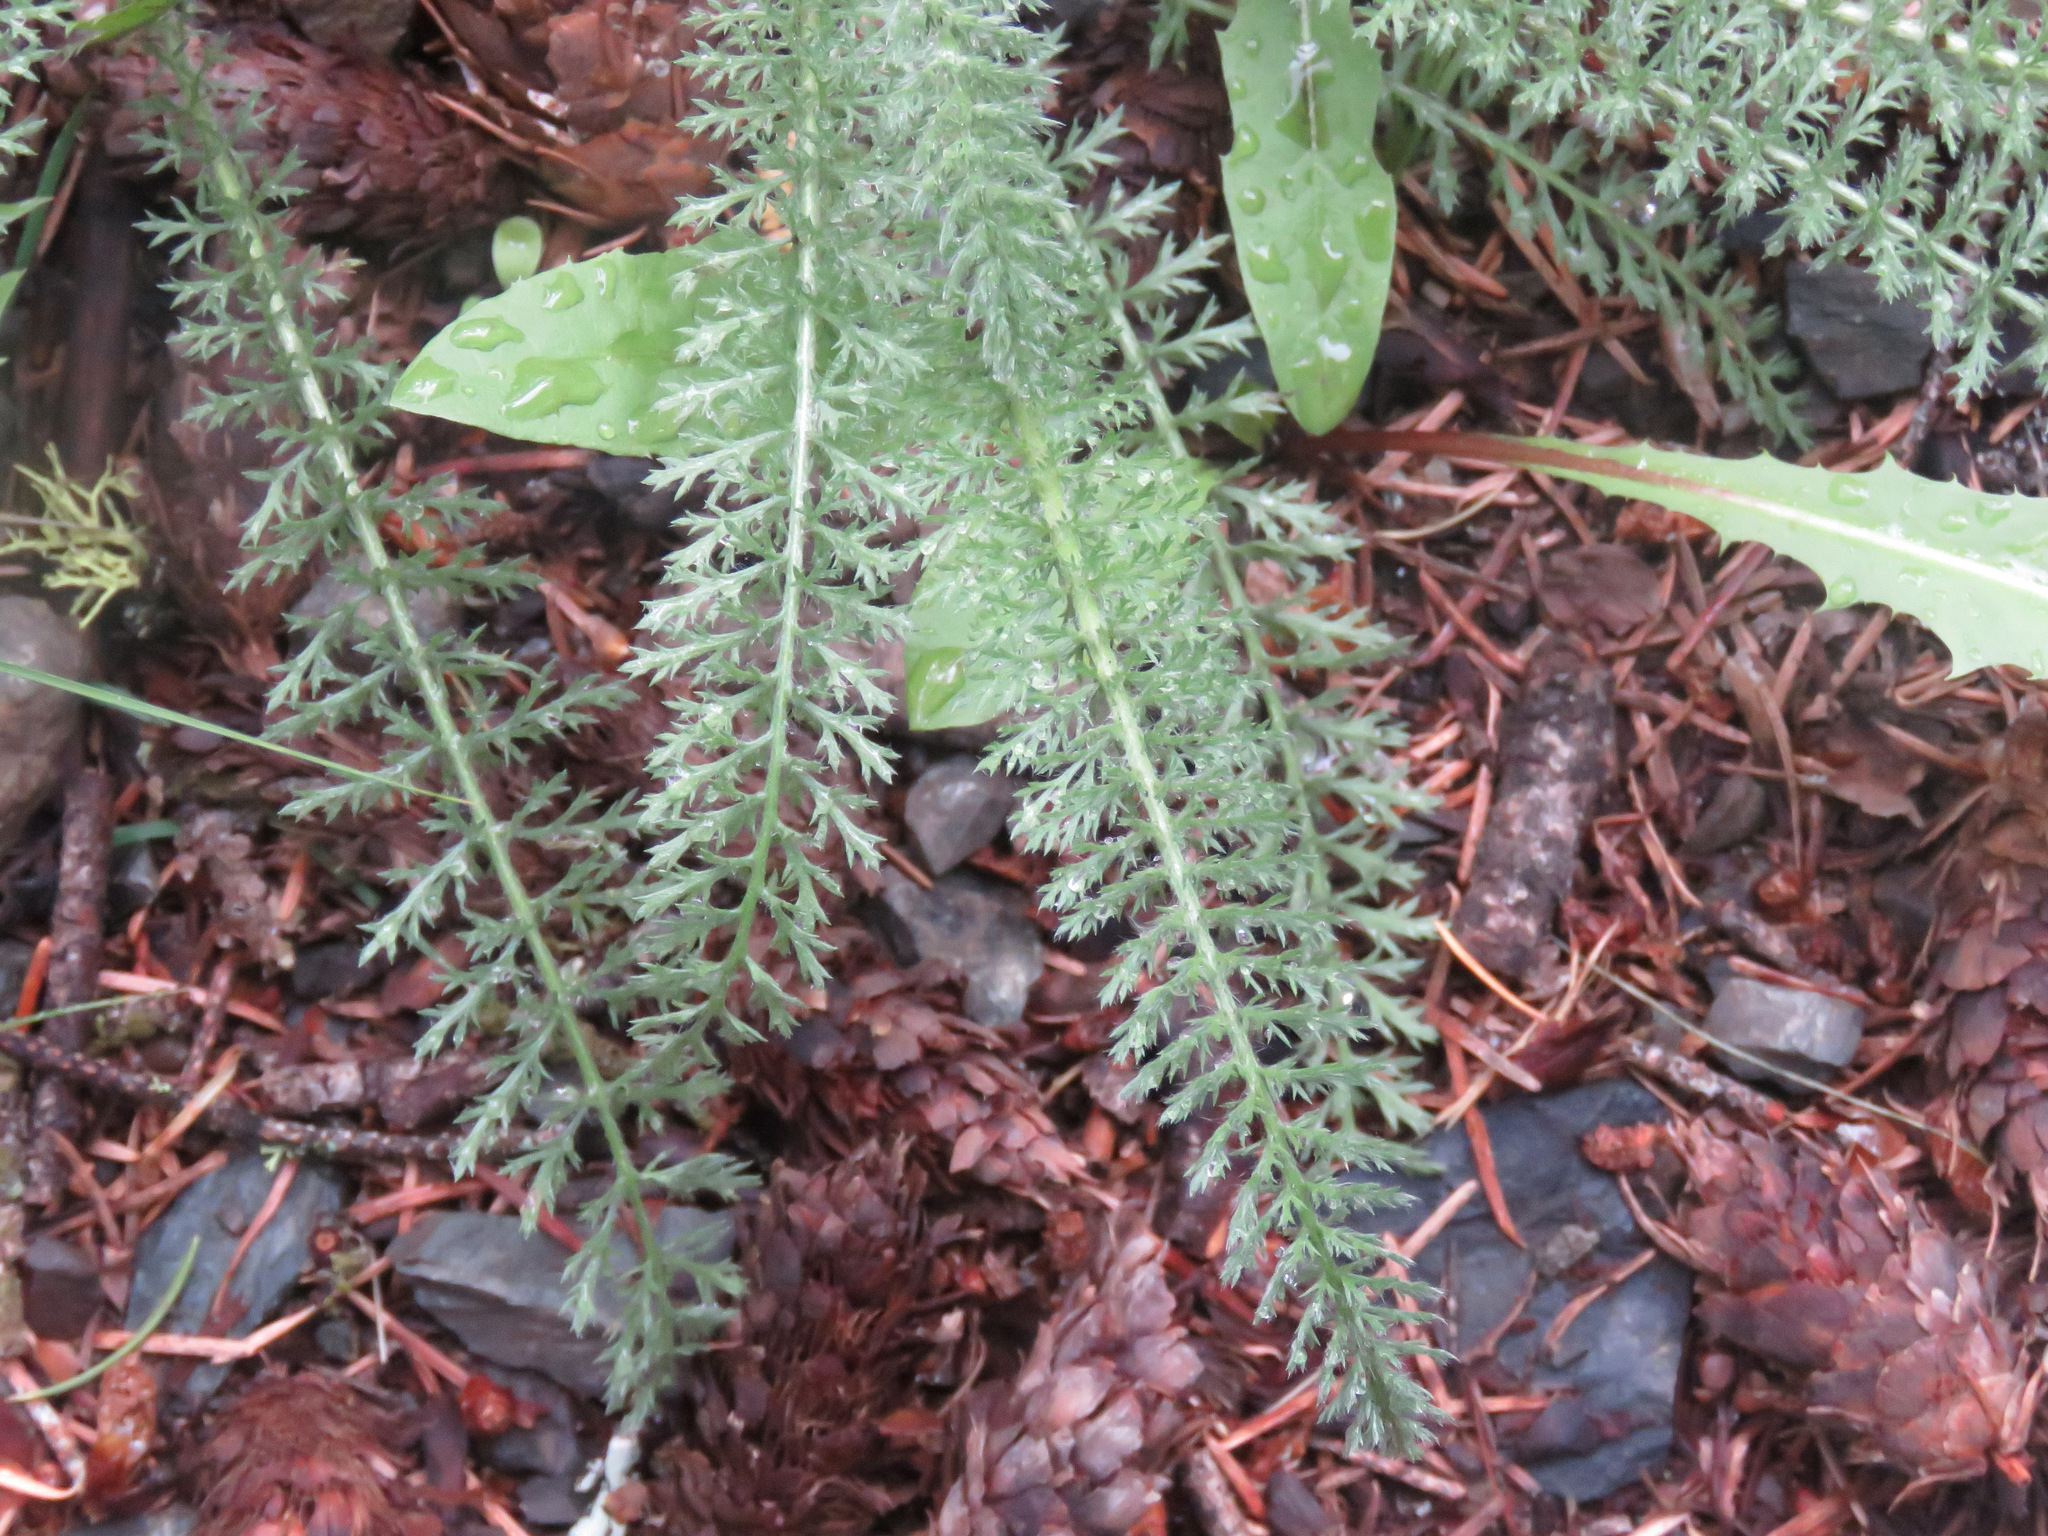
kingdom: Plantae
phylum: Tracheophyta
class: Magnoliopsida
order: Asterales
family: Asteraceae
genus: Achillea
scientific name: Achillea millefolium
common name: Yarrow
